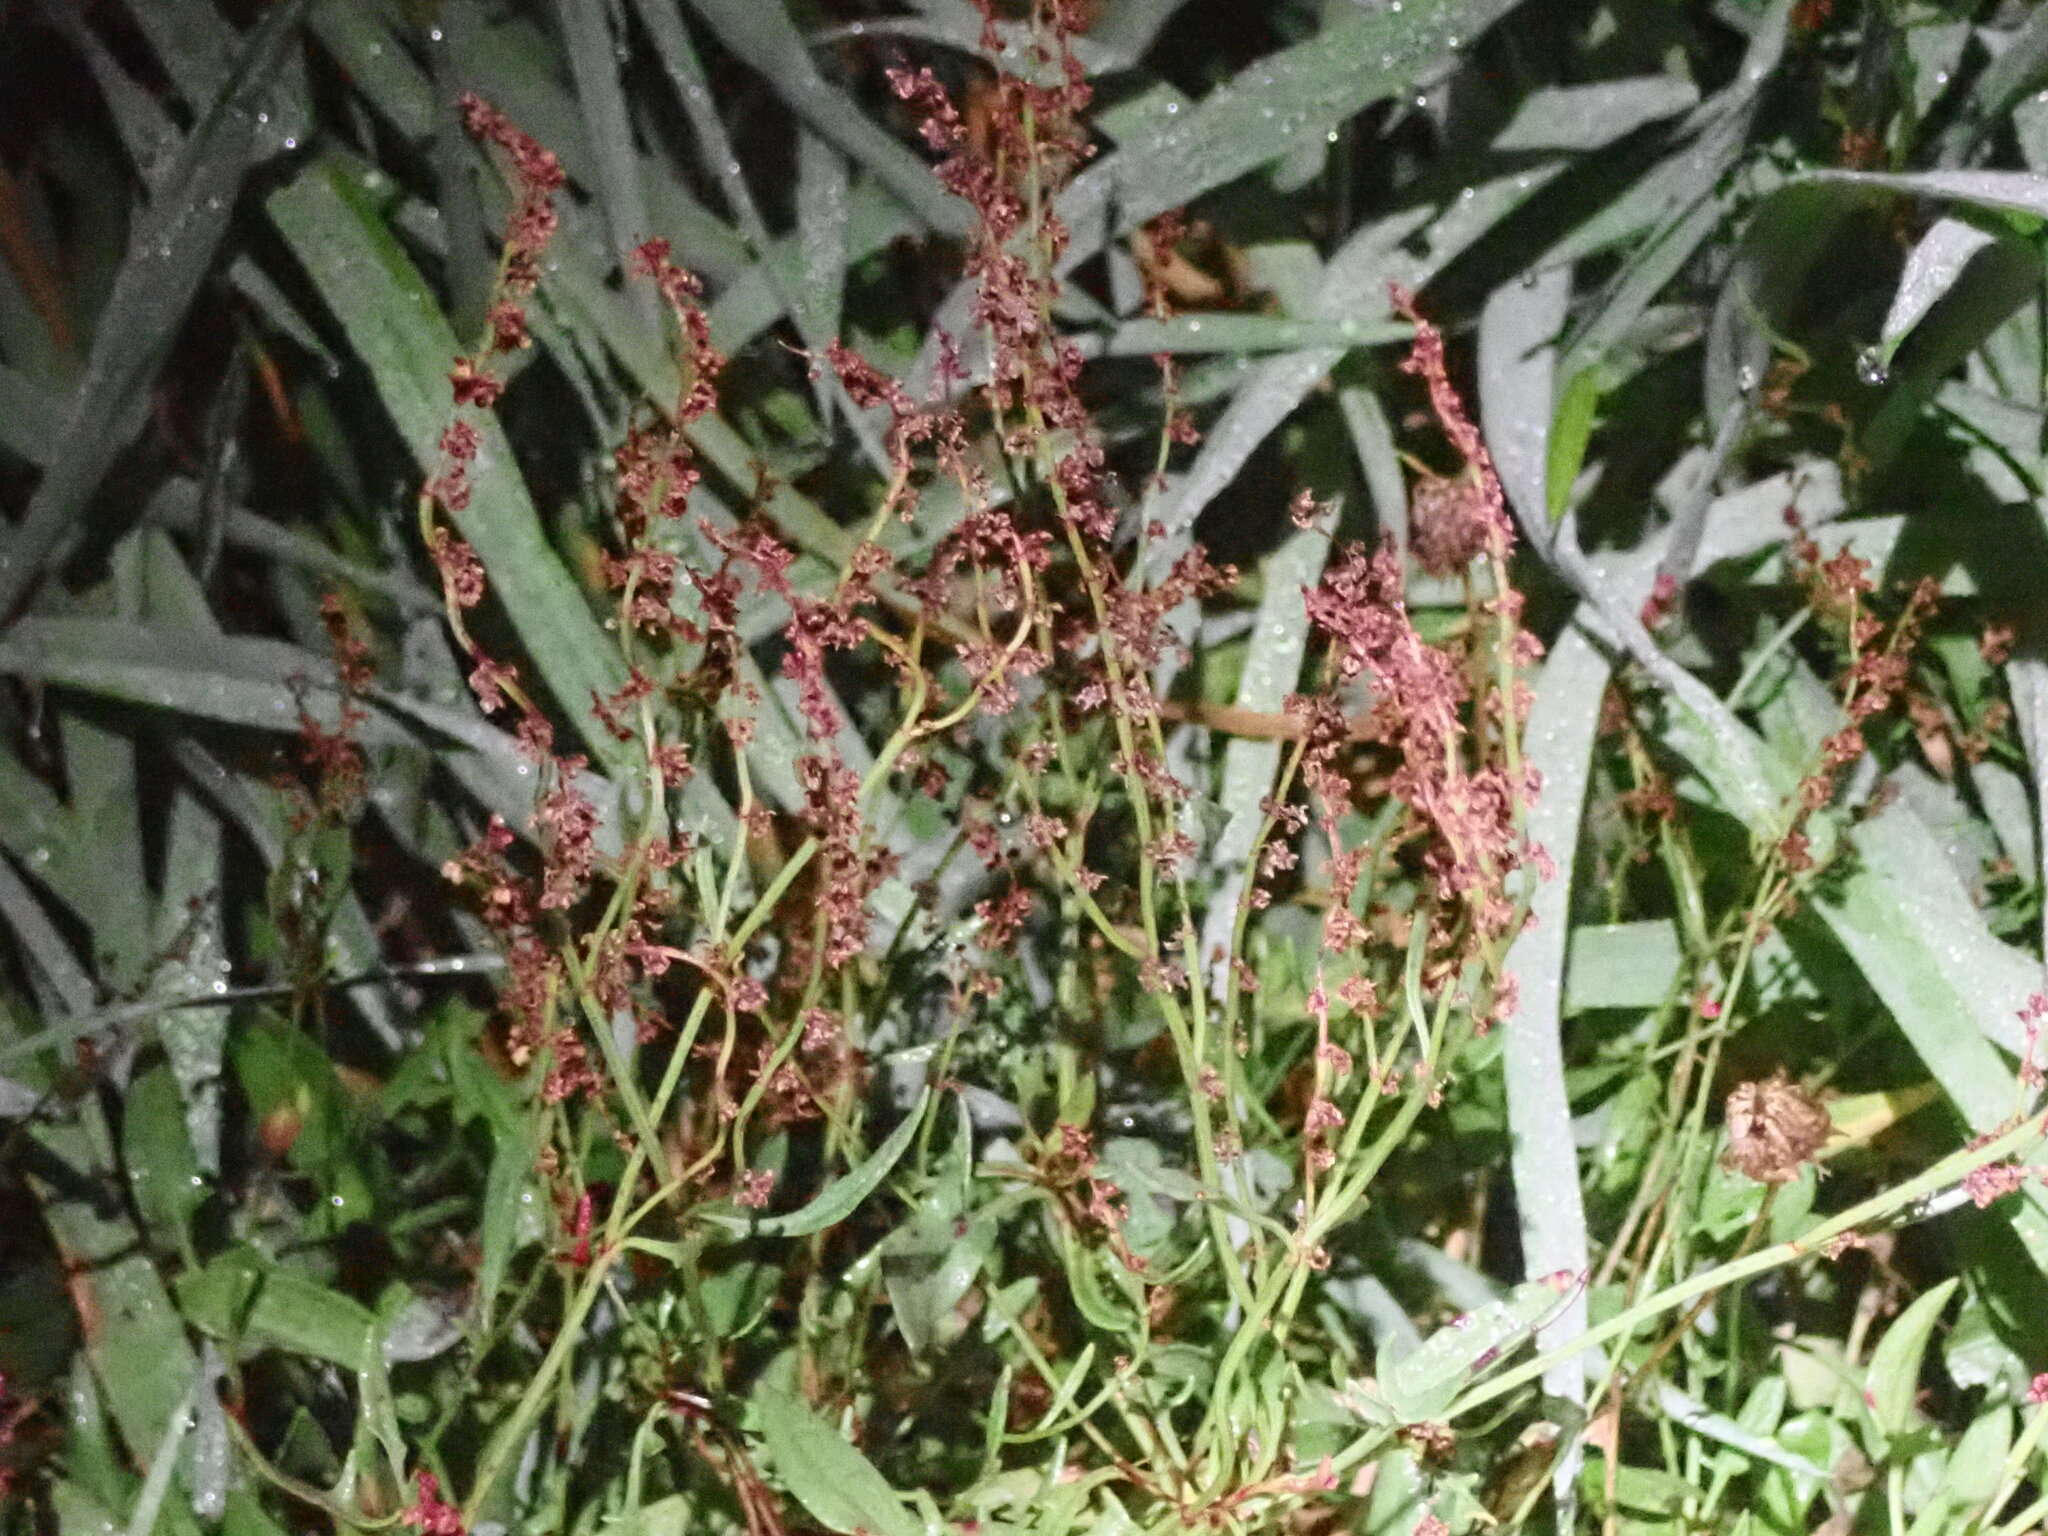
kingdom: Plantae
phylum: Tracheophyta
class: Magnoliopsida
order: Caryophyllales
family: Polygonaceae
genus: Rumex
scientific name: Rumex acetosella
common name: Common sheep sorrel
